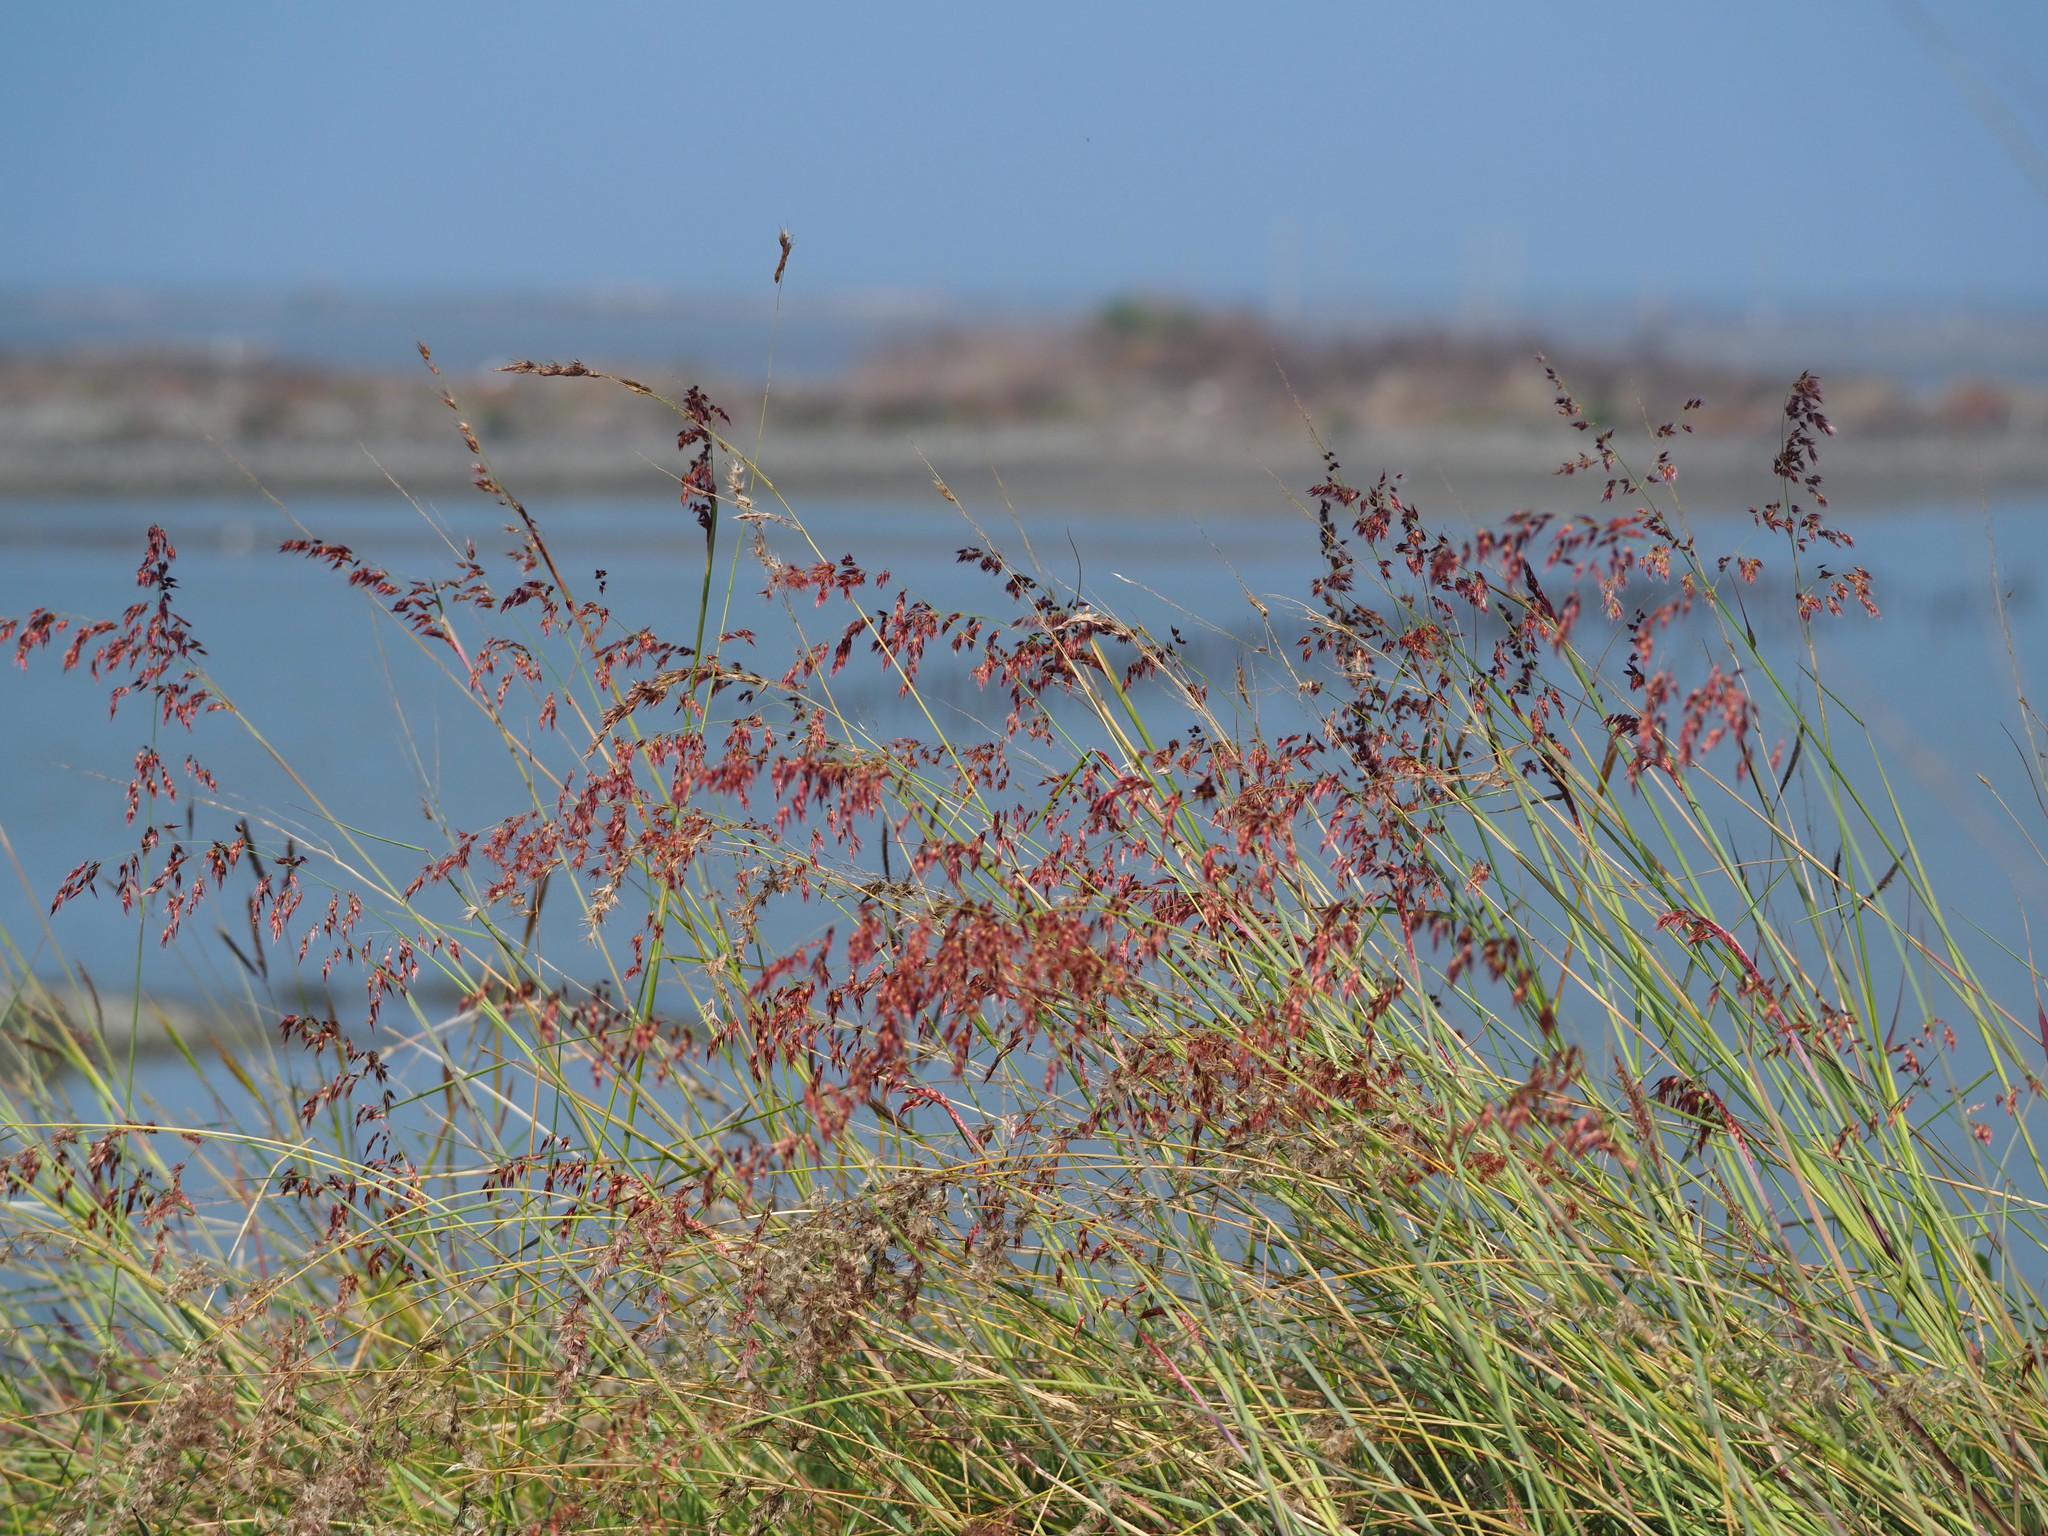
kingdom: Plantae
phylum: Tracheophyta
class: Liliopsida
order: Poales
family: Poaceae
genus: Melinis
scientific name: Melinis repens
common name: Rose natal grass
